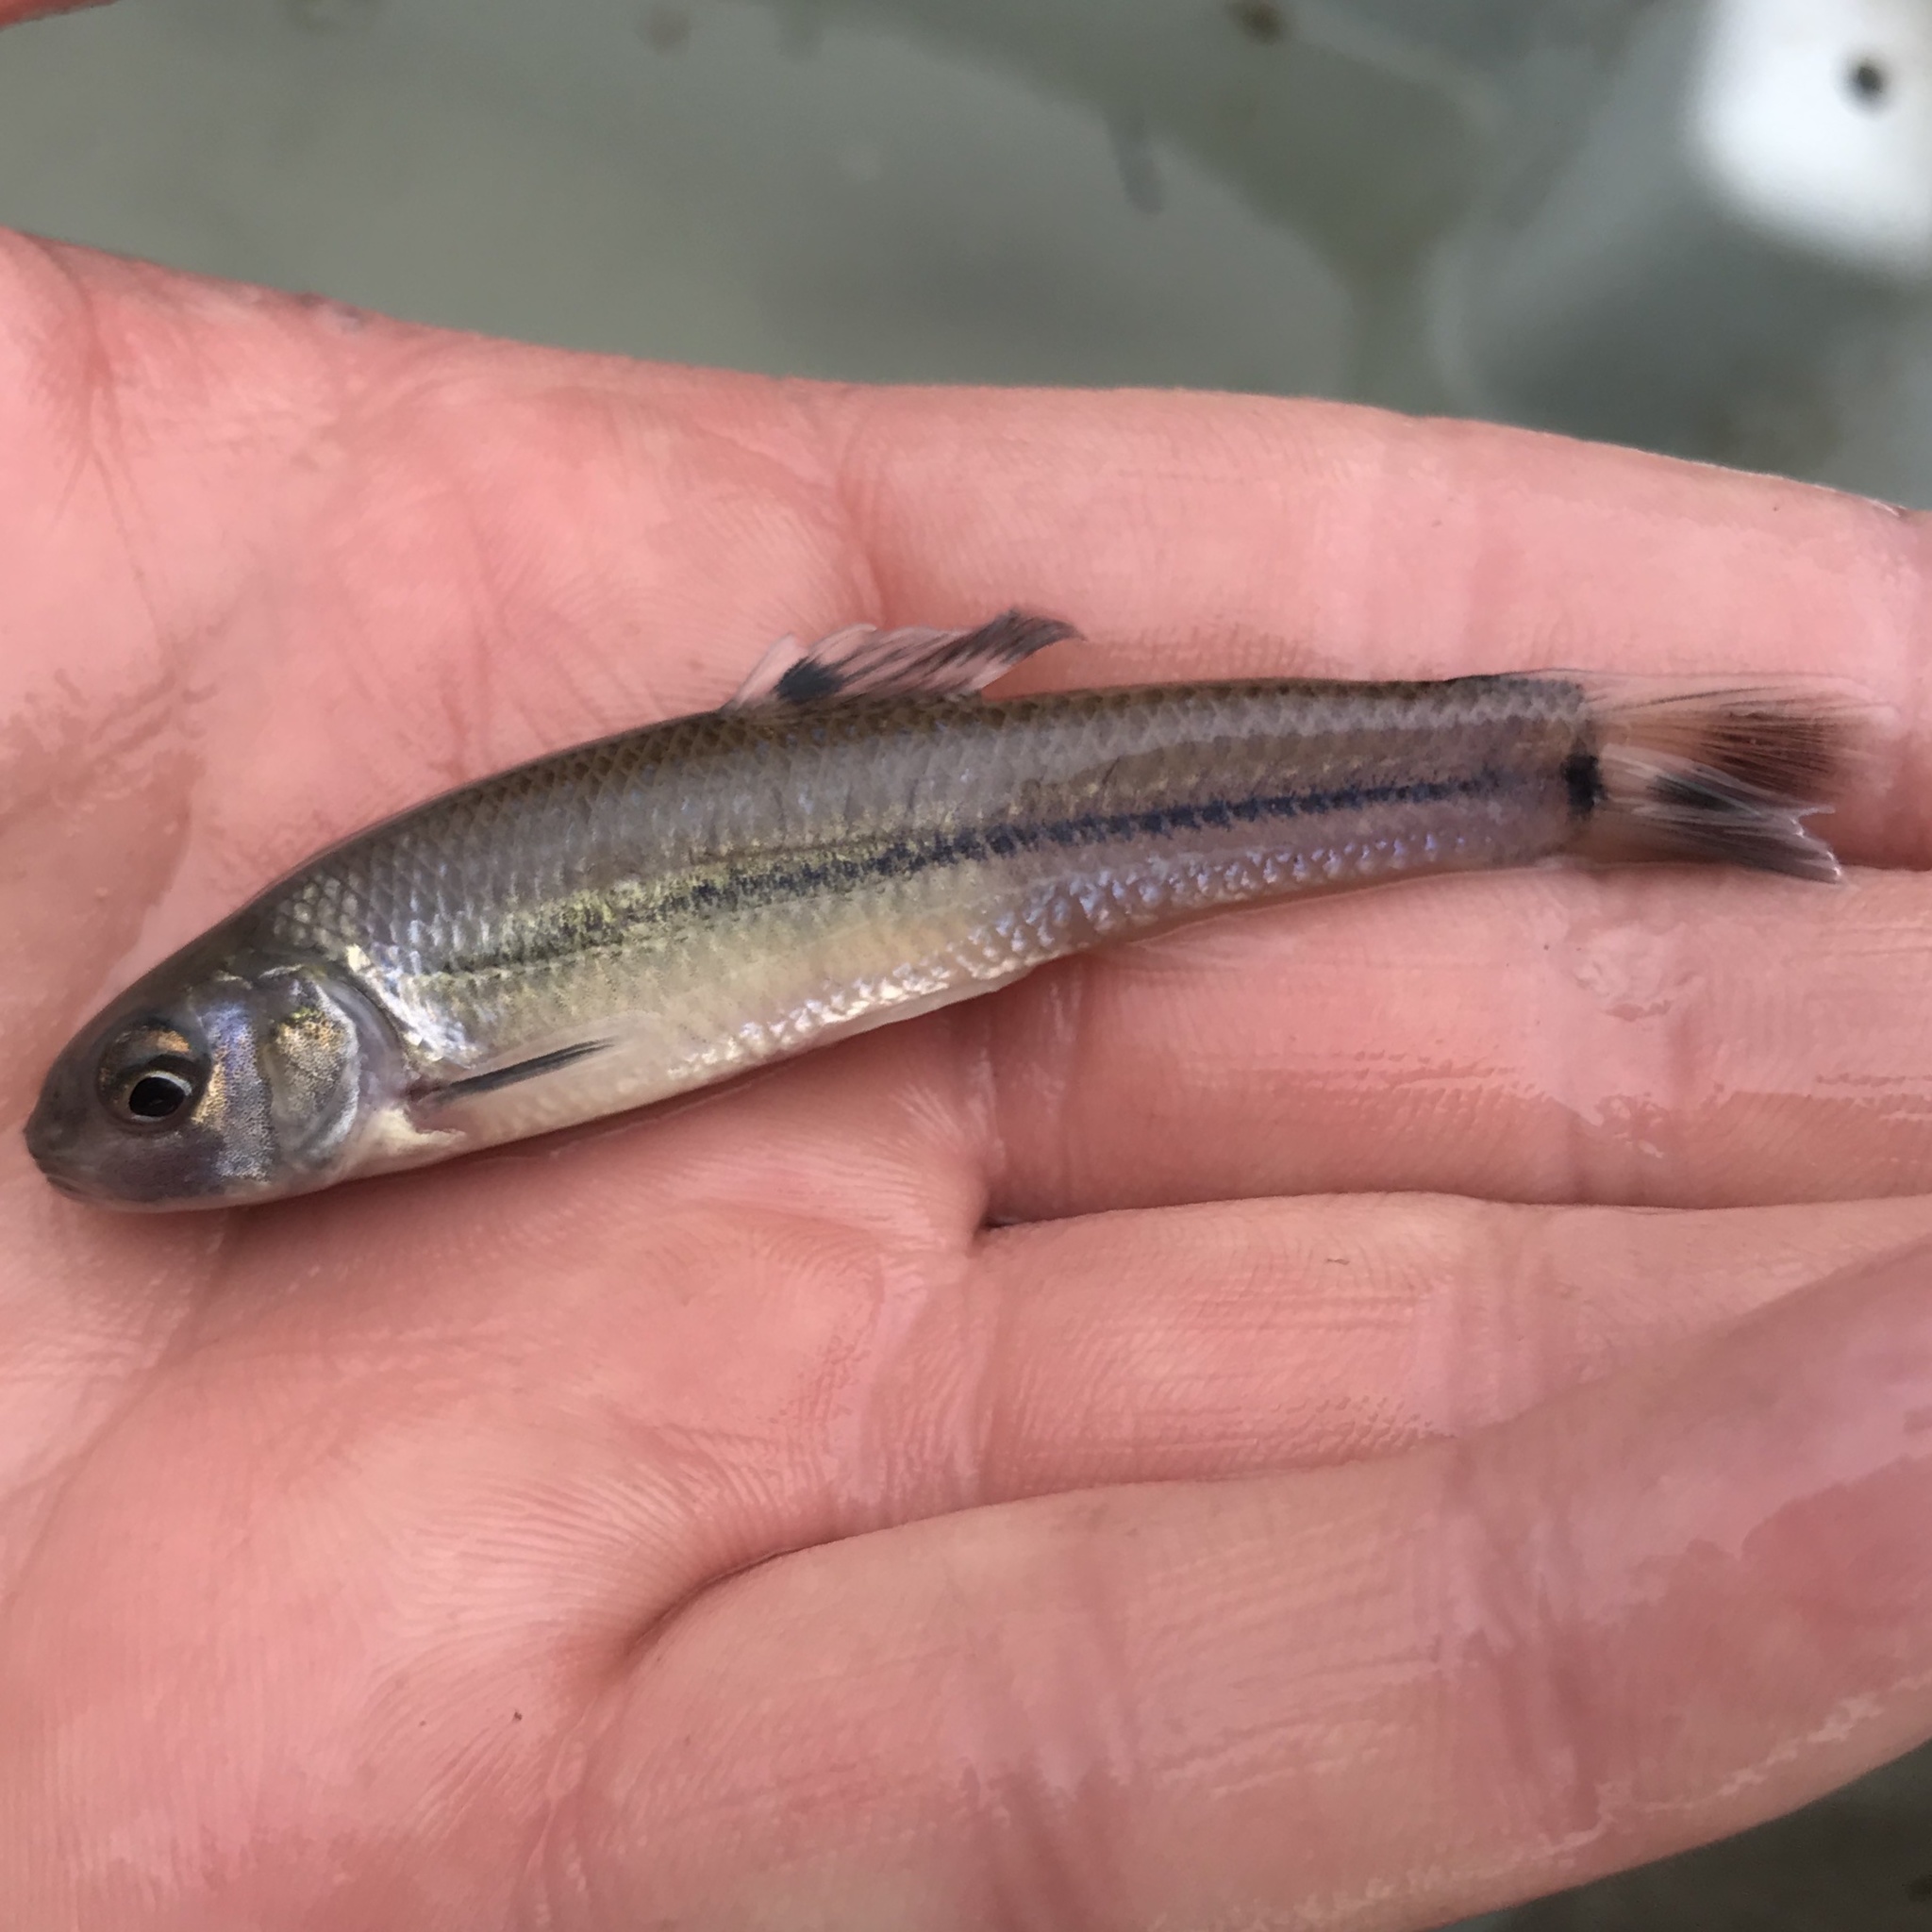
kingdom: Animalia
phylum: Chordata
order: Cypriniformes
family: Cyprinidae
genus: Pimephales
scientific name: Pimephales vigilax
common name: Bullhead minnow
